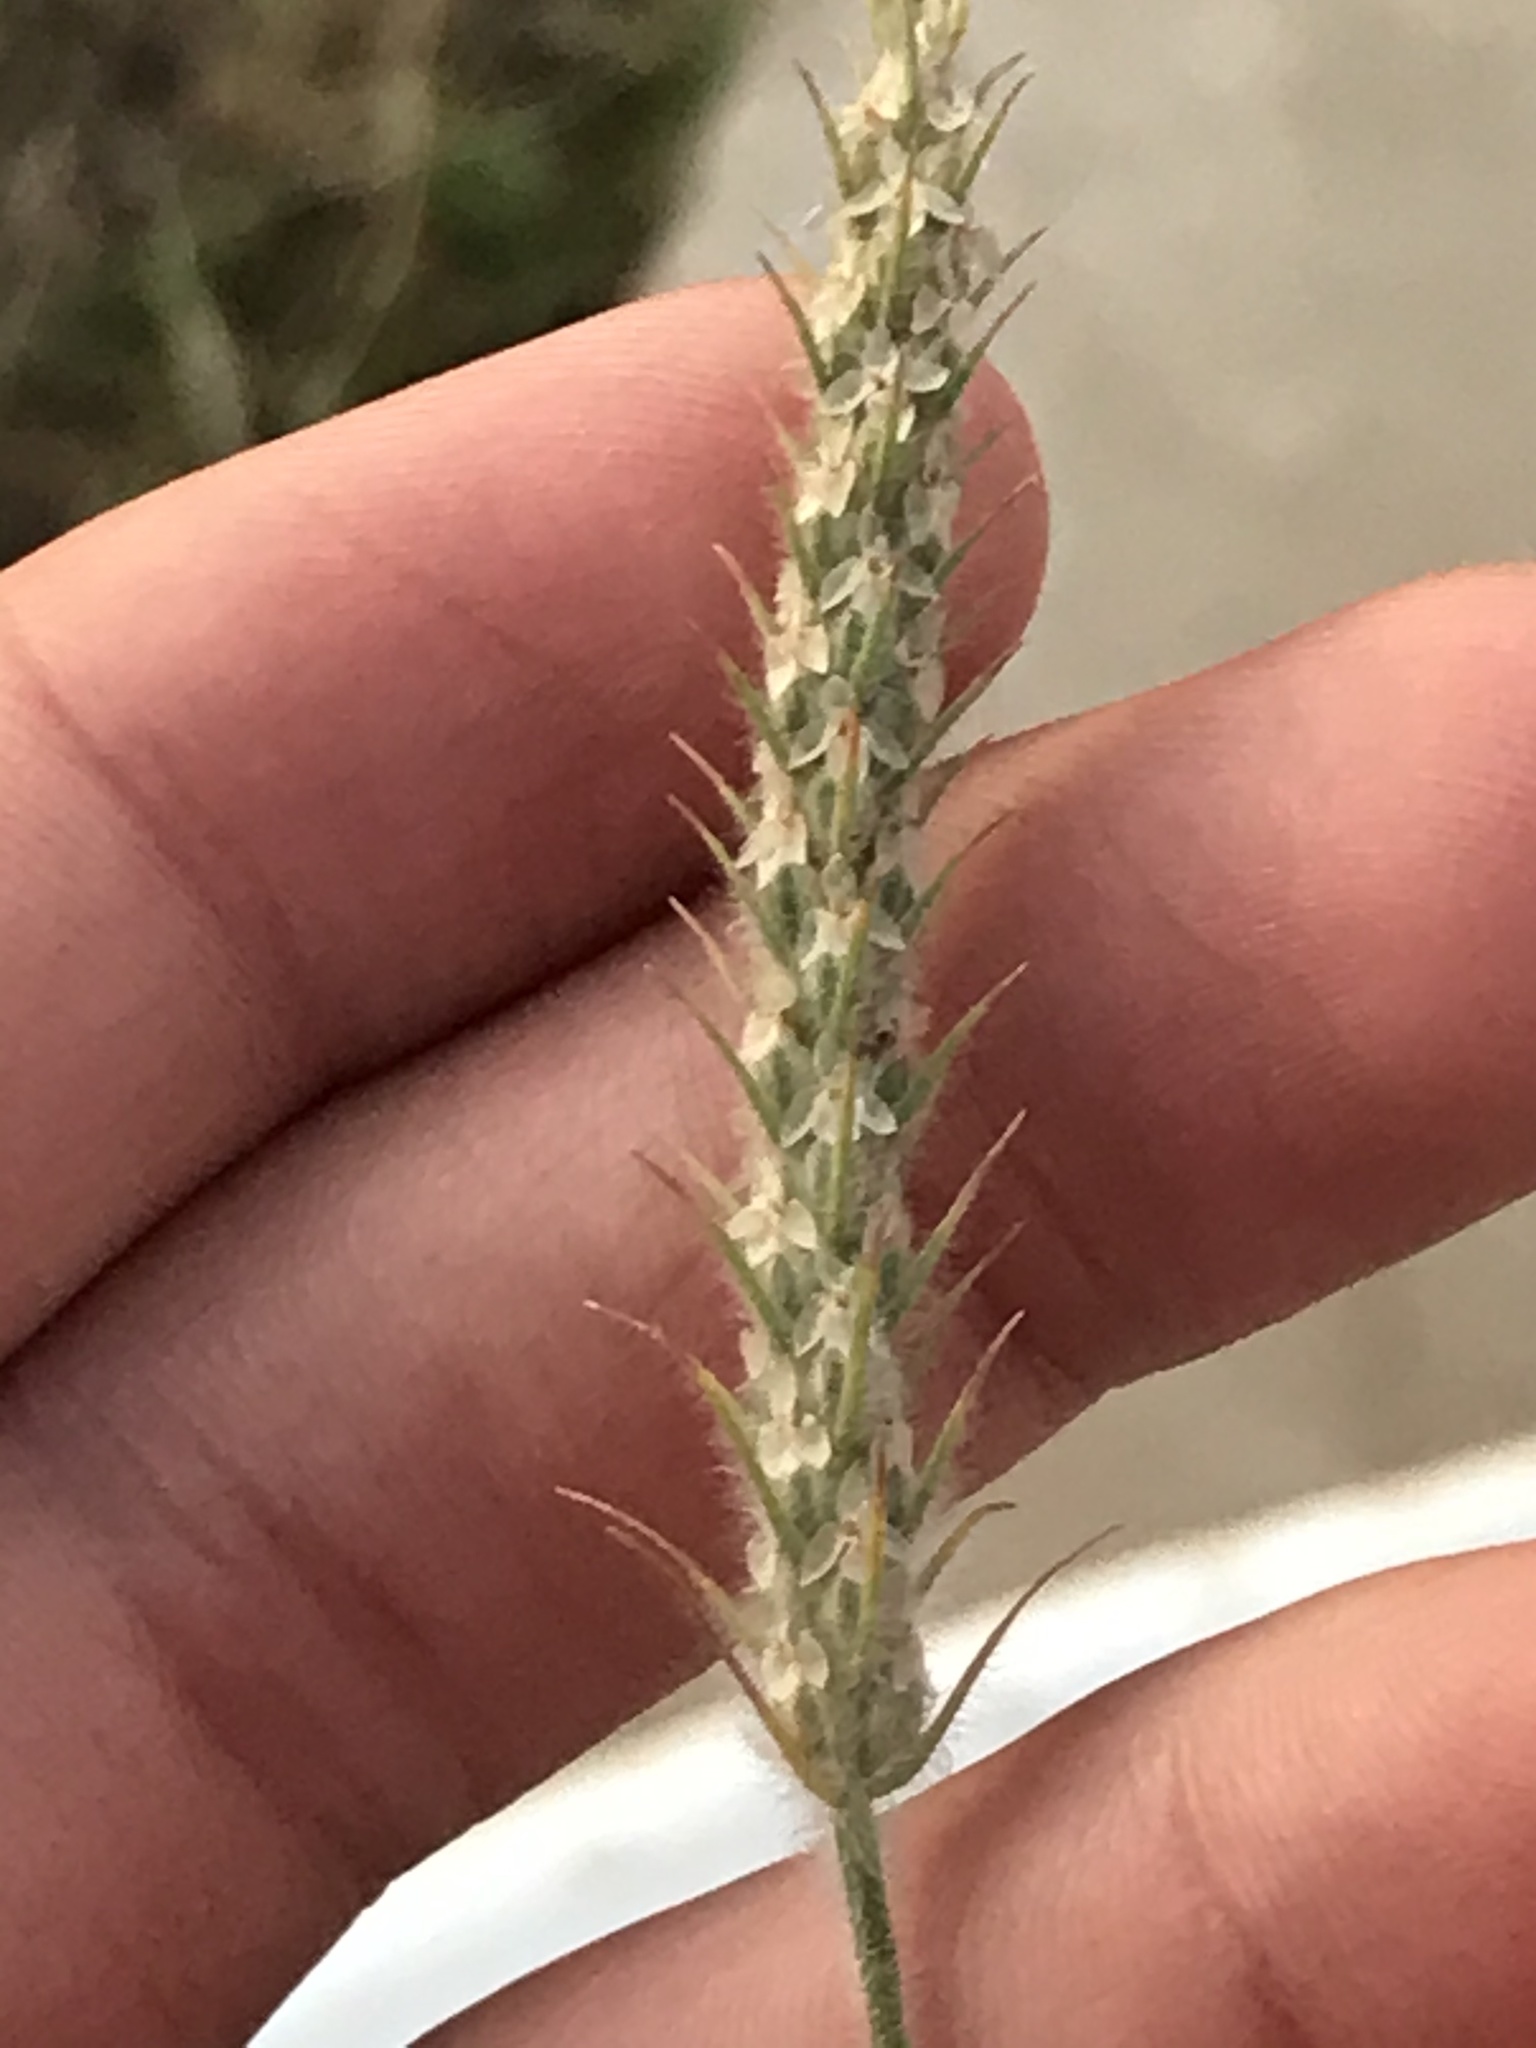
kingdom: Plantae
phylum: Tracheophyta
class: Magnoliopsida
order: Lamiales
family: Plantaginaceae
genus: Plantago
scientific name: Plantago aristata
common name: Bracted plantain
